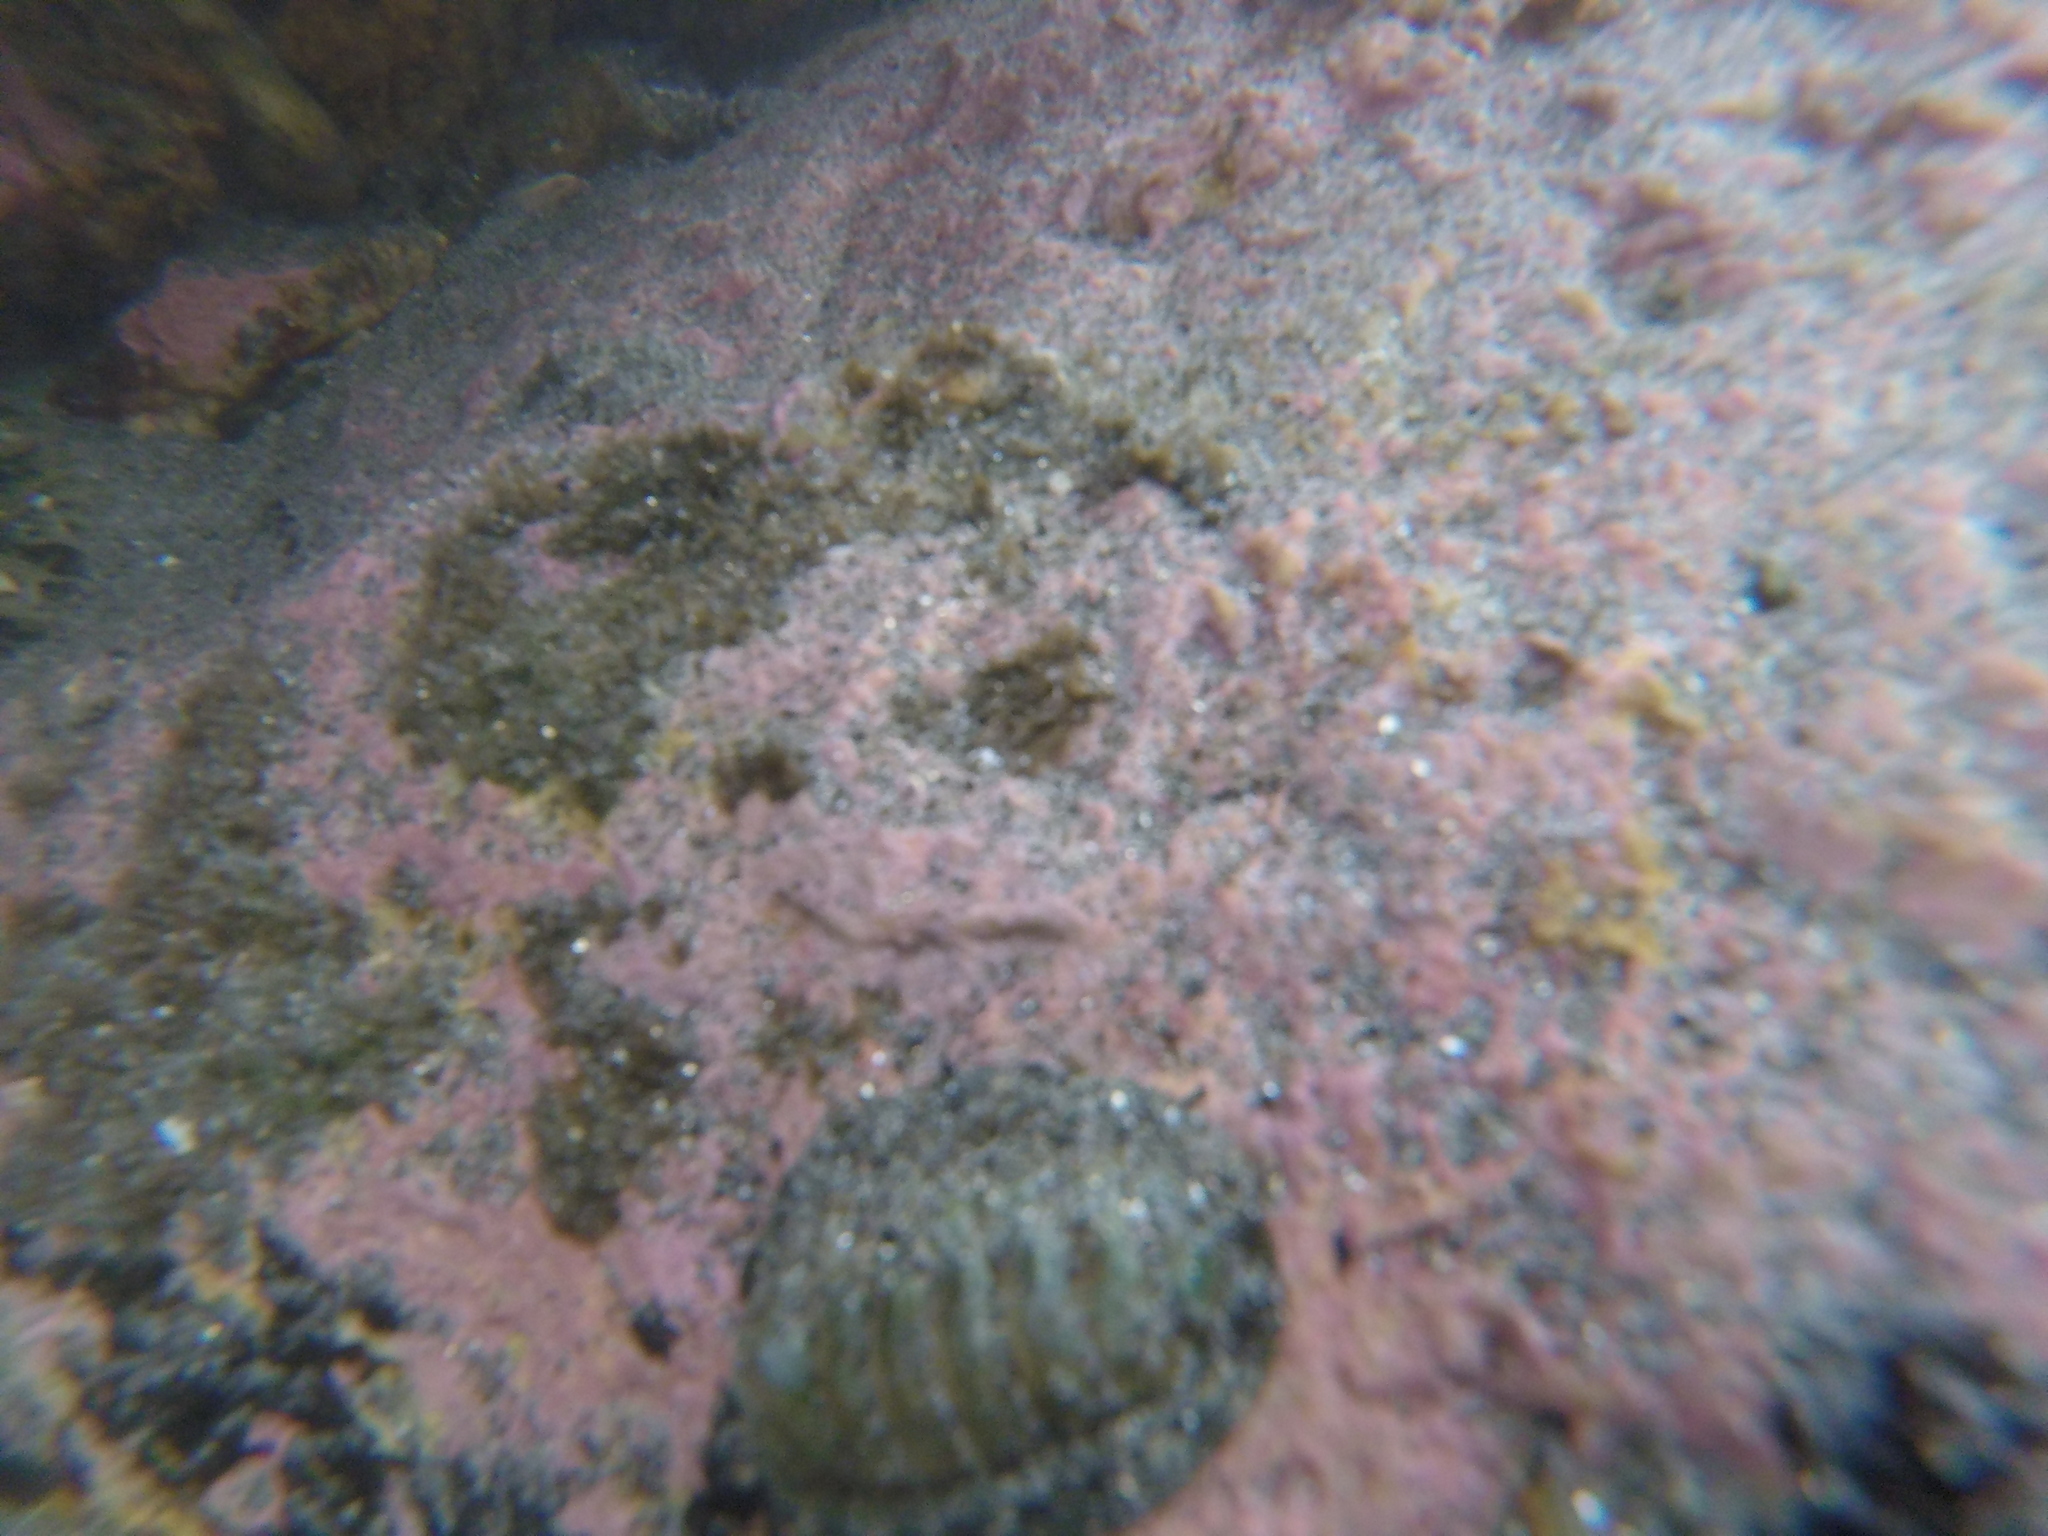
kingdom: Animalia
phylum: Mollusca
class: Polyplacophora
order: Chitonida
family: Chitonidae
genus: Sypharochiton
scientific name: Sypharochiton pelliserpentis
